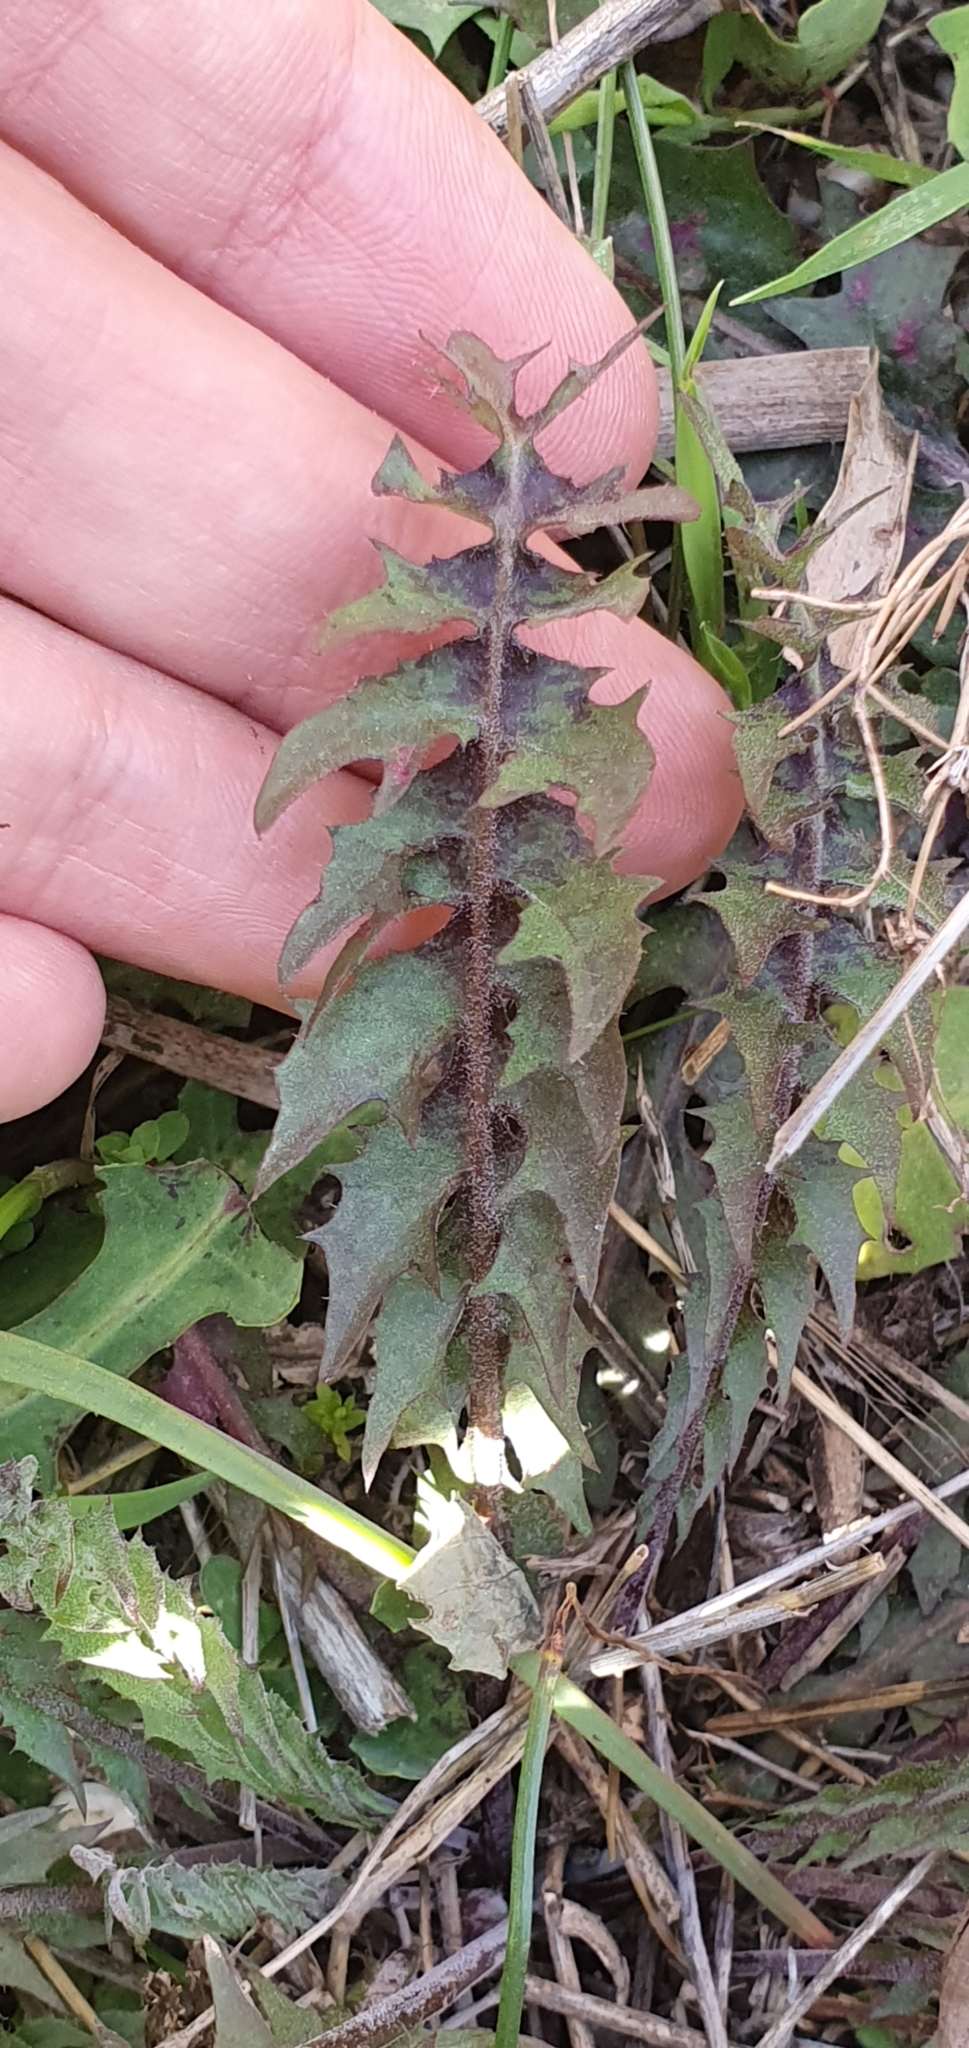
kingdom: Plantae
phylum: Tracheophyta
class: Magnoliopsida
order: Asterales
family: Asteraceae
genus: Hyoseris
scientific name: Hyoseris radiata
